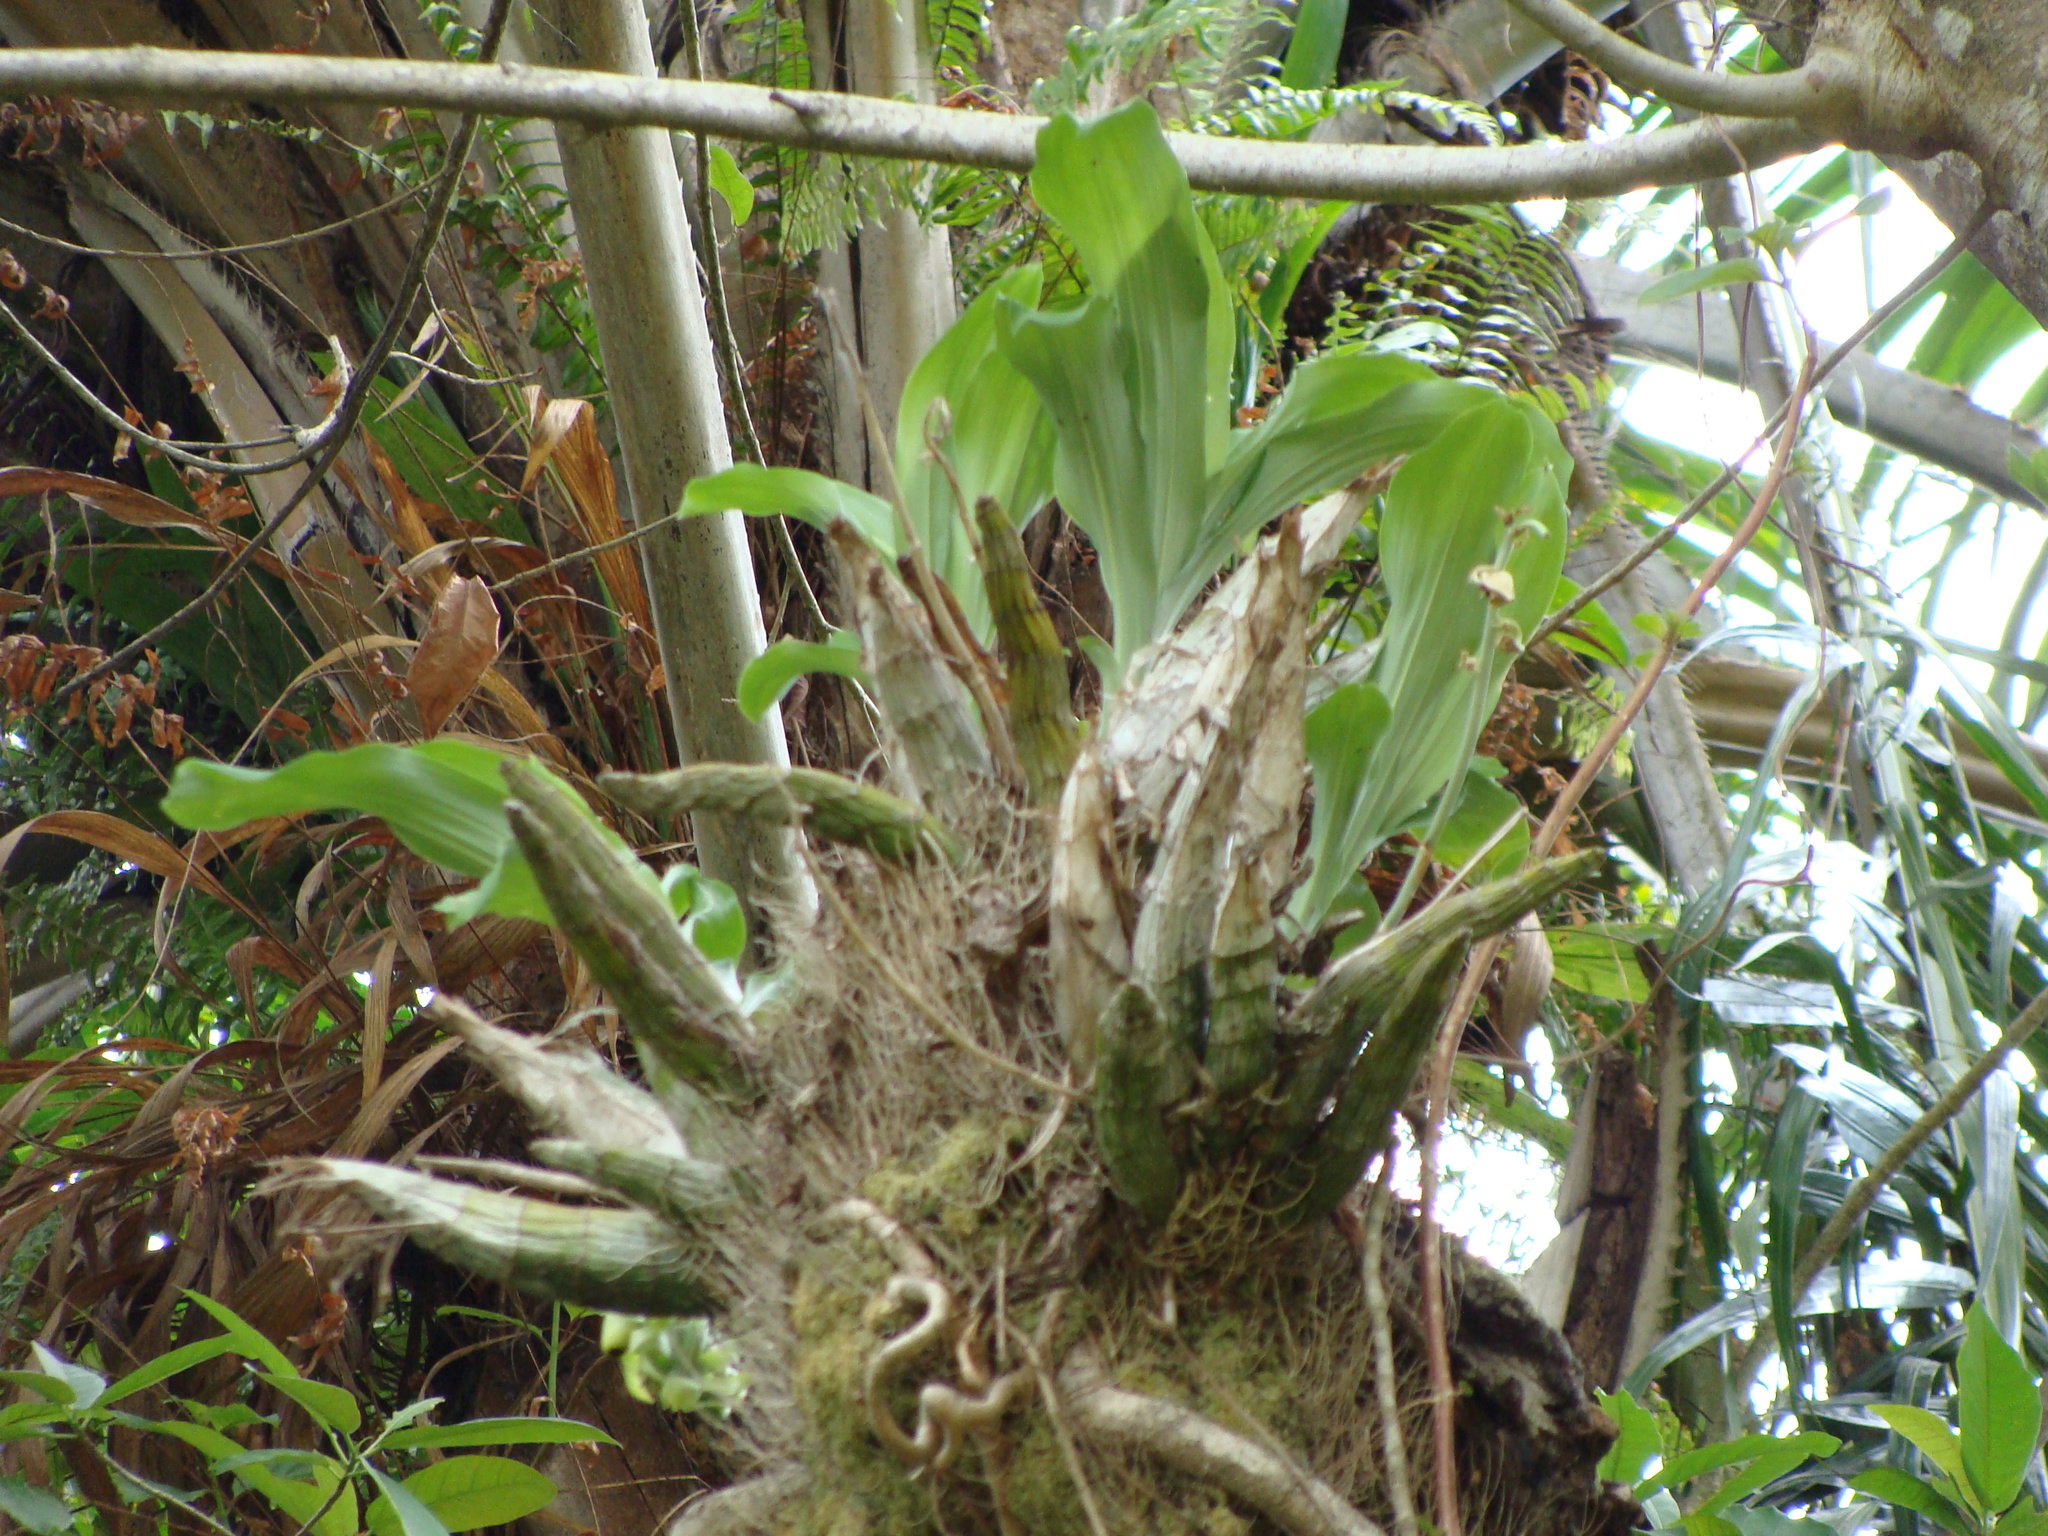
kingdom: Plantae
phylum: Tracheophyta
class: Liliopsida
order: Asparagales
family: Orchidaceae
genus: Catasetum
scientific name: Catasetum integerrimum
